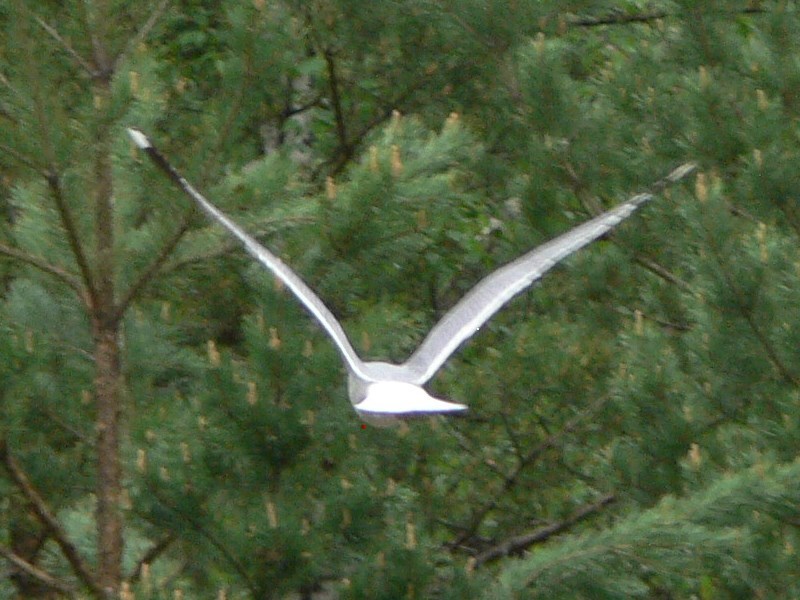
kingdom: Animalia
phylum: Chordata
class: Aves
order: Charadriiformes
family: Laridae
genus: Larus
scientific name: Larus canus
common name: Mew gull
